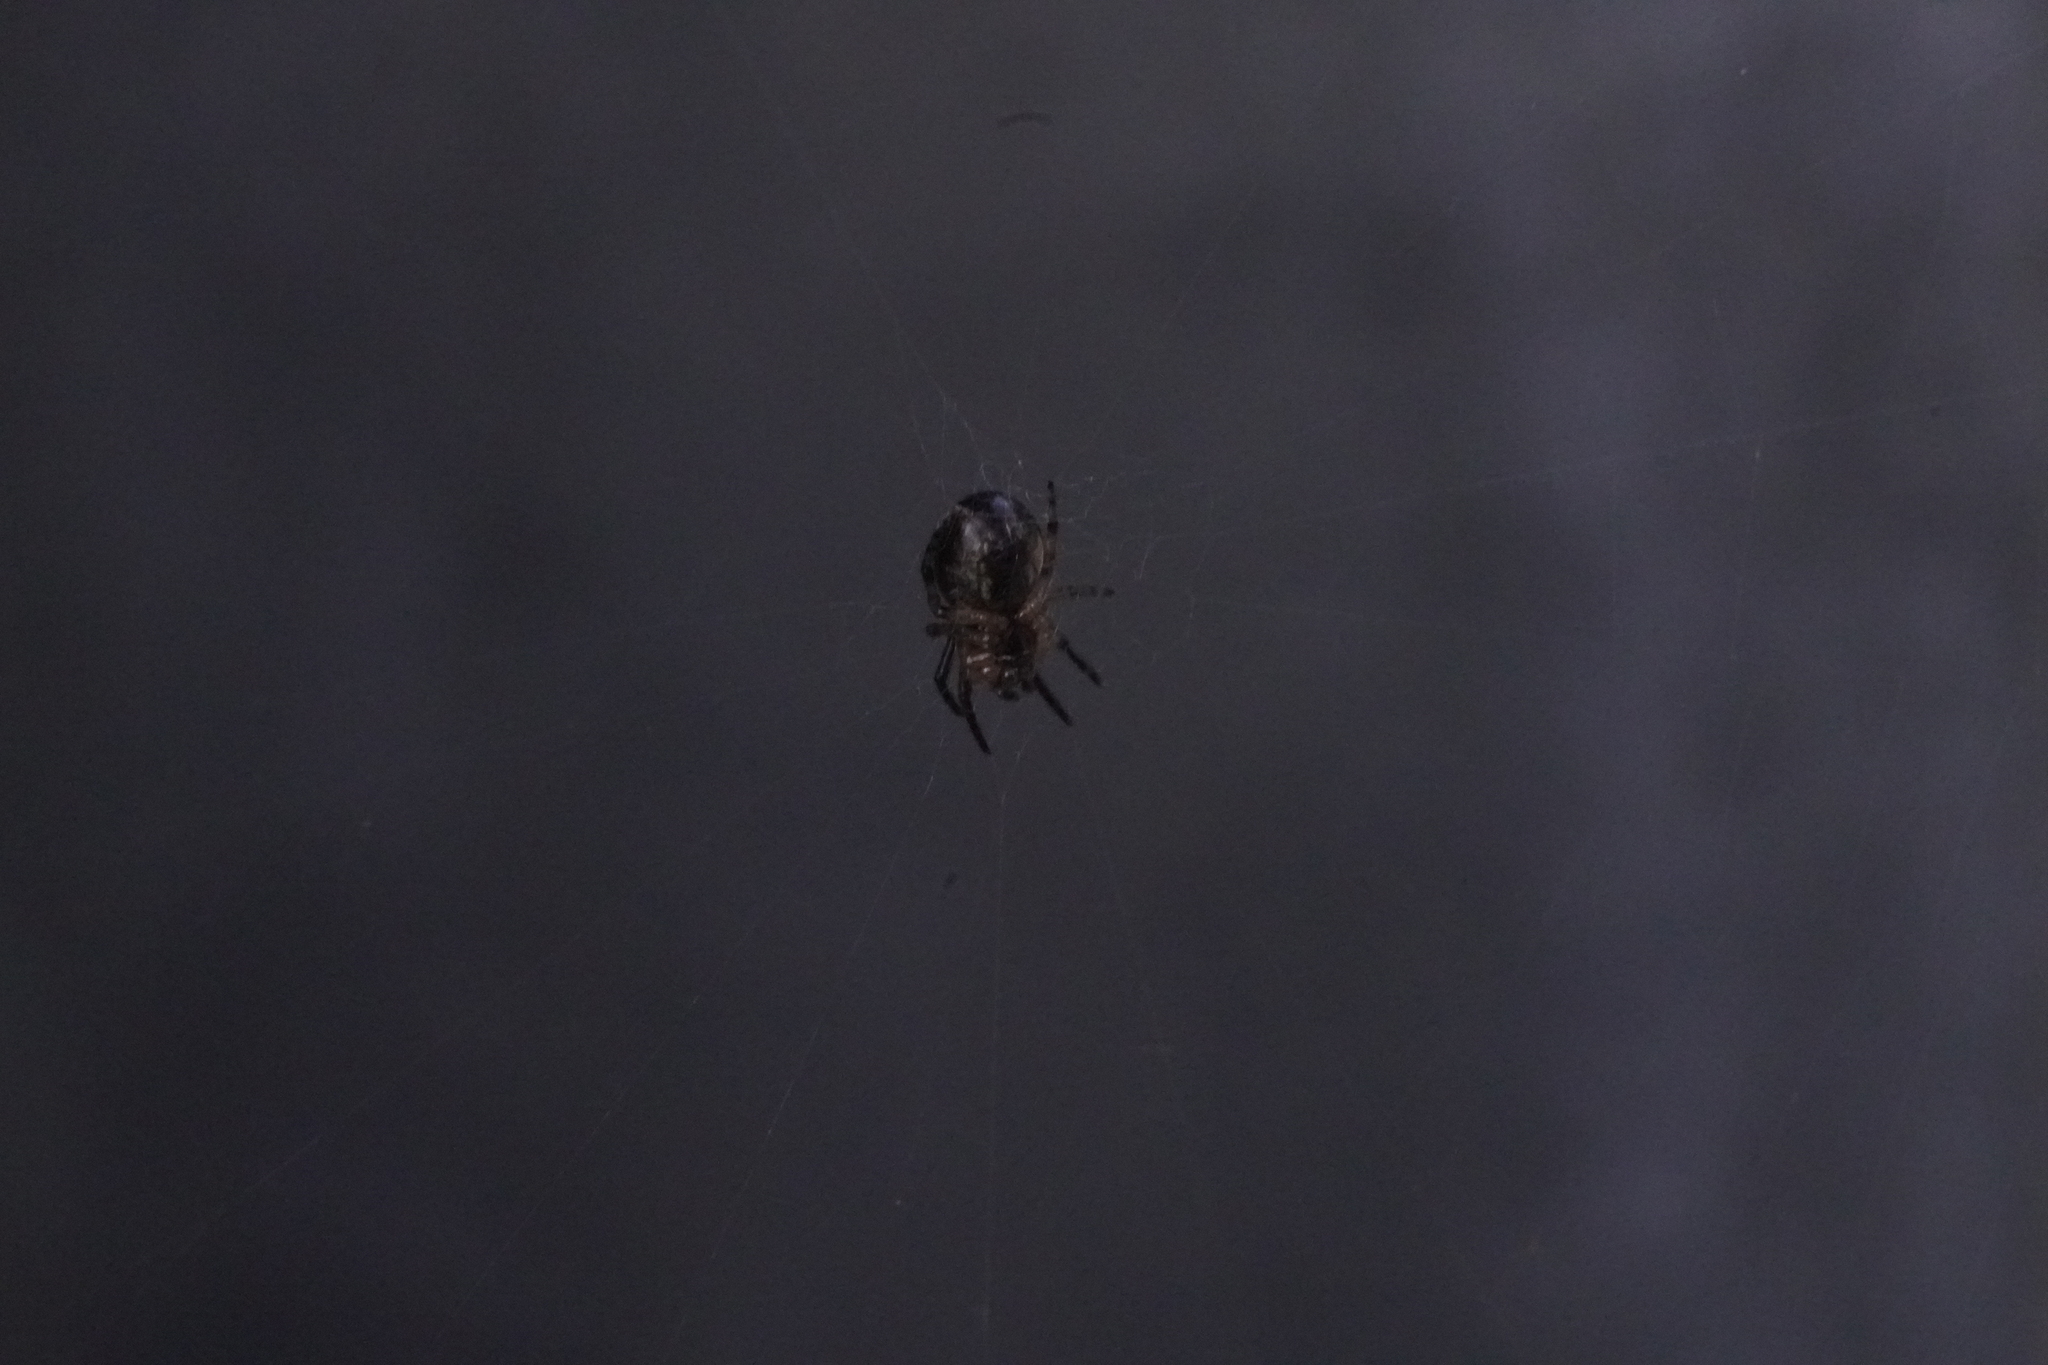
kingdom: Animalia
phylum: Arthropoda
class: Arachnida
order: Araneae
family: Araneidae
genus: Larinioides
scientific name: Larinioides cornutus
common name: Furrow orbweaver
